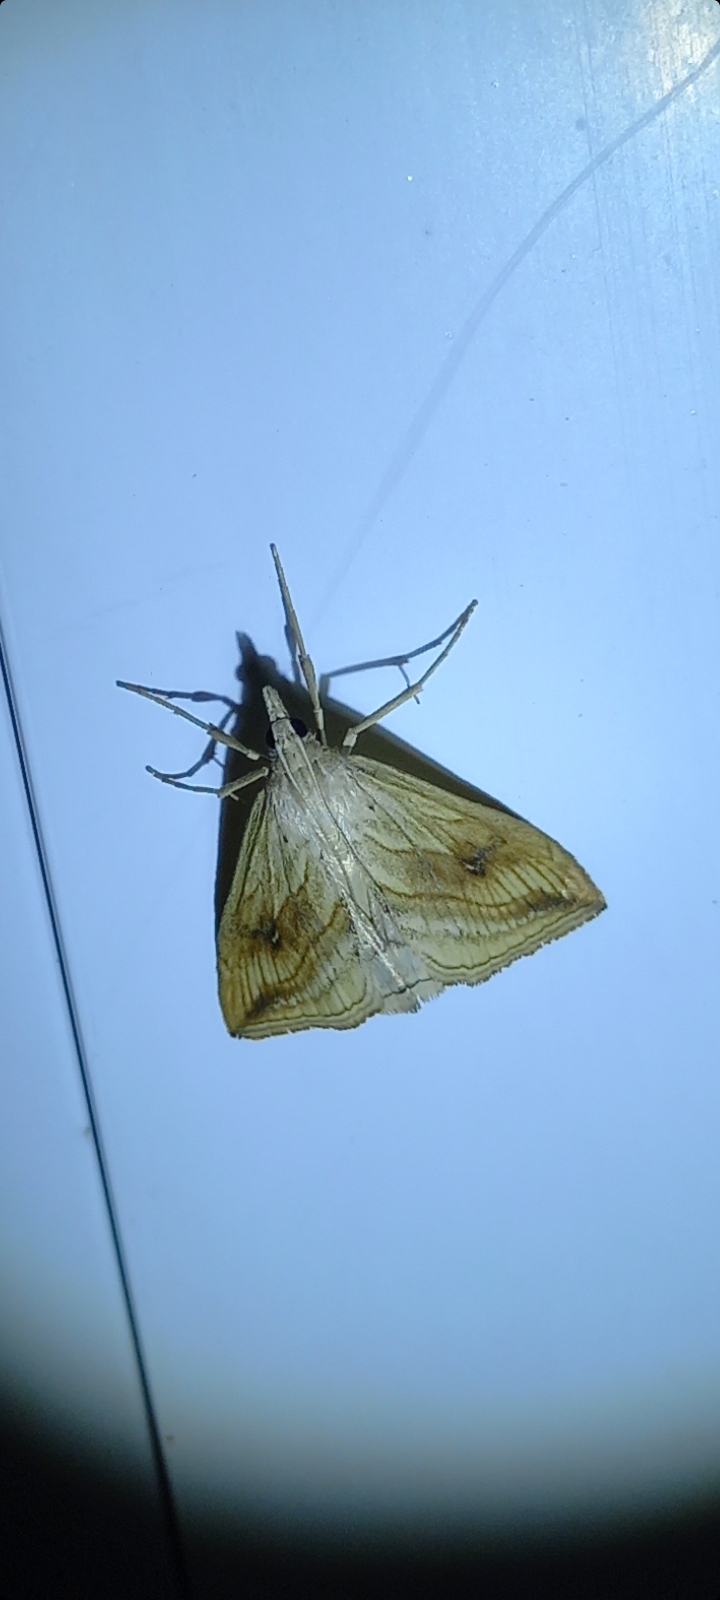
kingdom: Animalia
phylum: Arthropoda
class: Insecta
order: Lepidoptera
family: Crambidae
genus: Evergestis
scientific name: Evergestis forficalis
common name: Garden pebble
